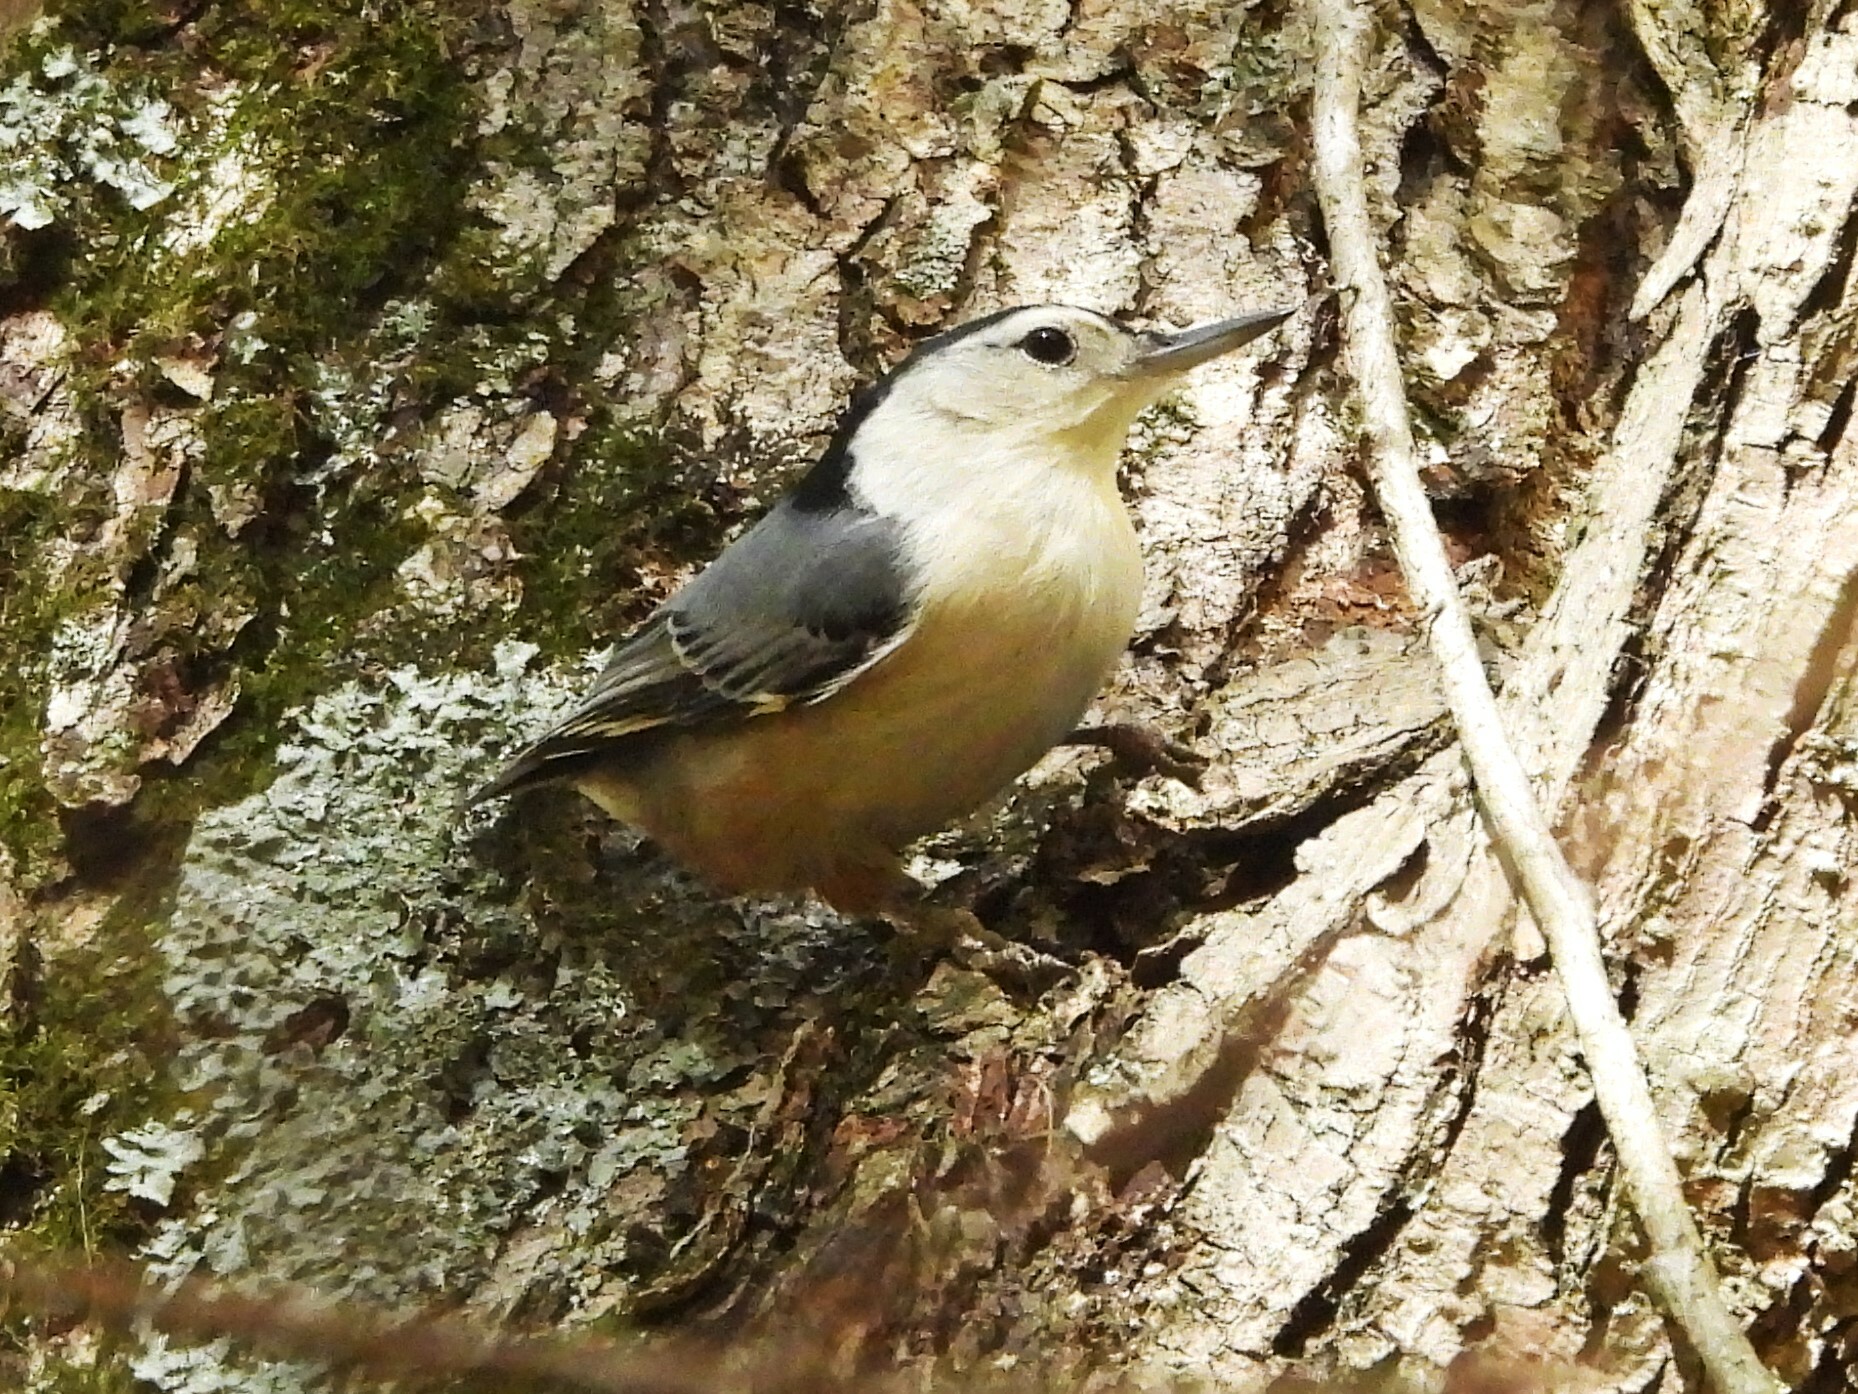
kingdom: Animalia
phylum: Chordata
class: Aves
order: Passeriformes
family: Sittidae
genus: Sitta
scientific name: Sitta carolinensis
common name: White-breasted nuthatch
